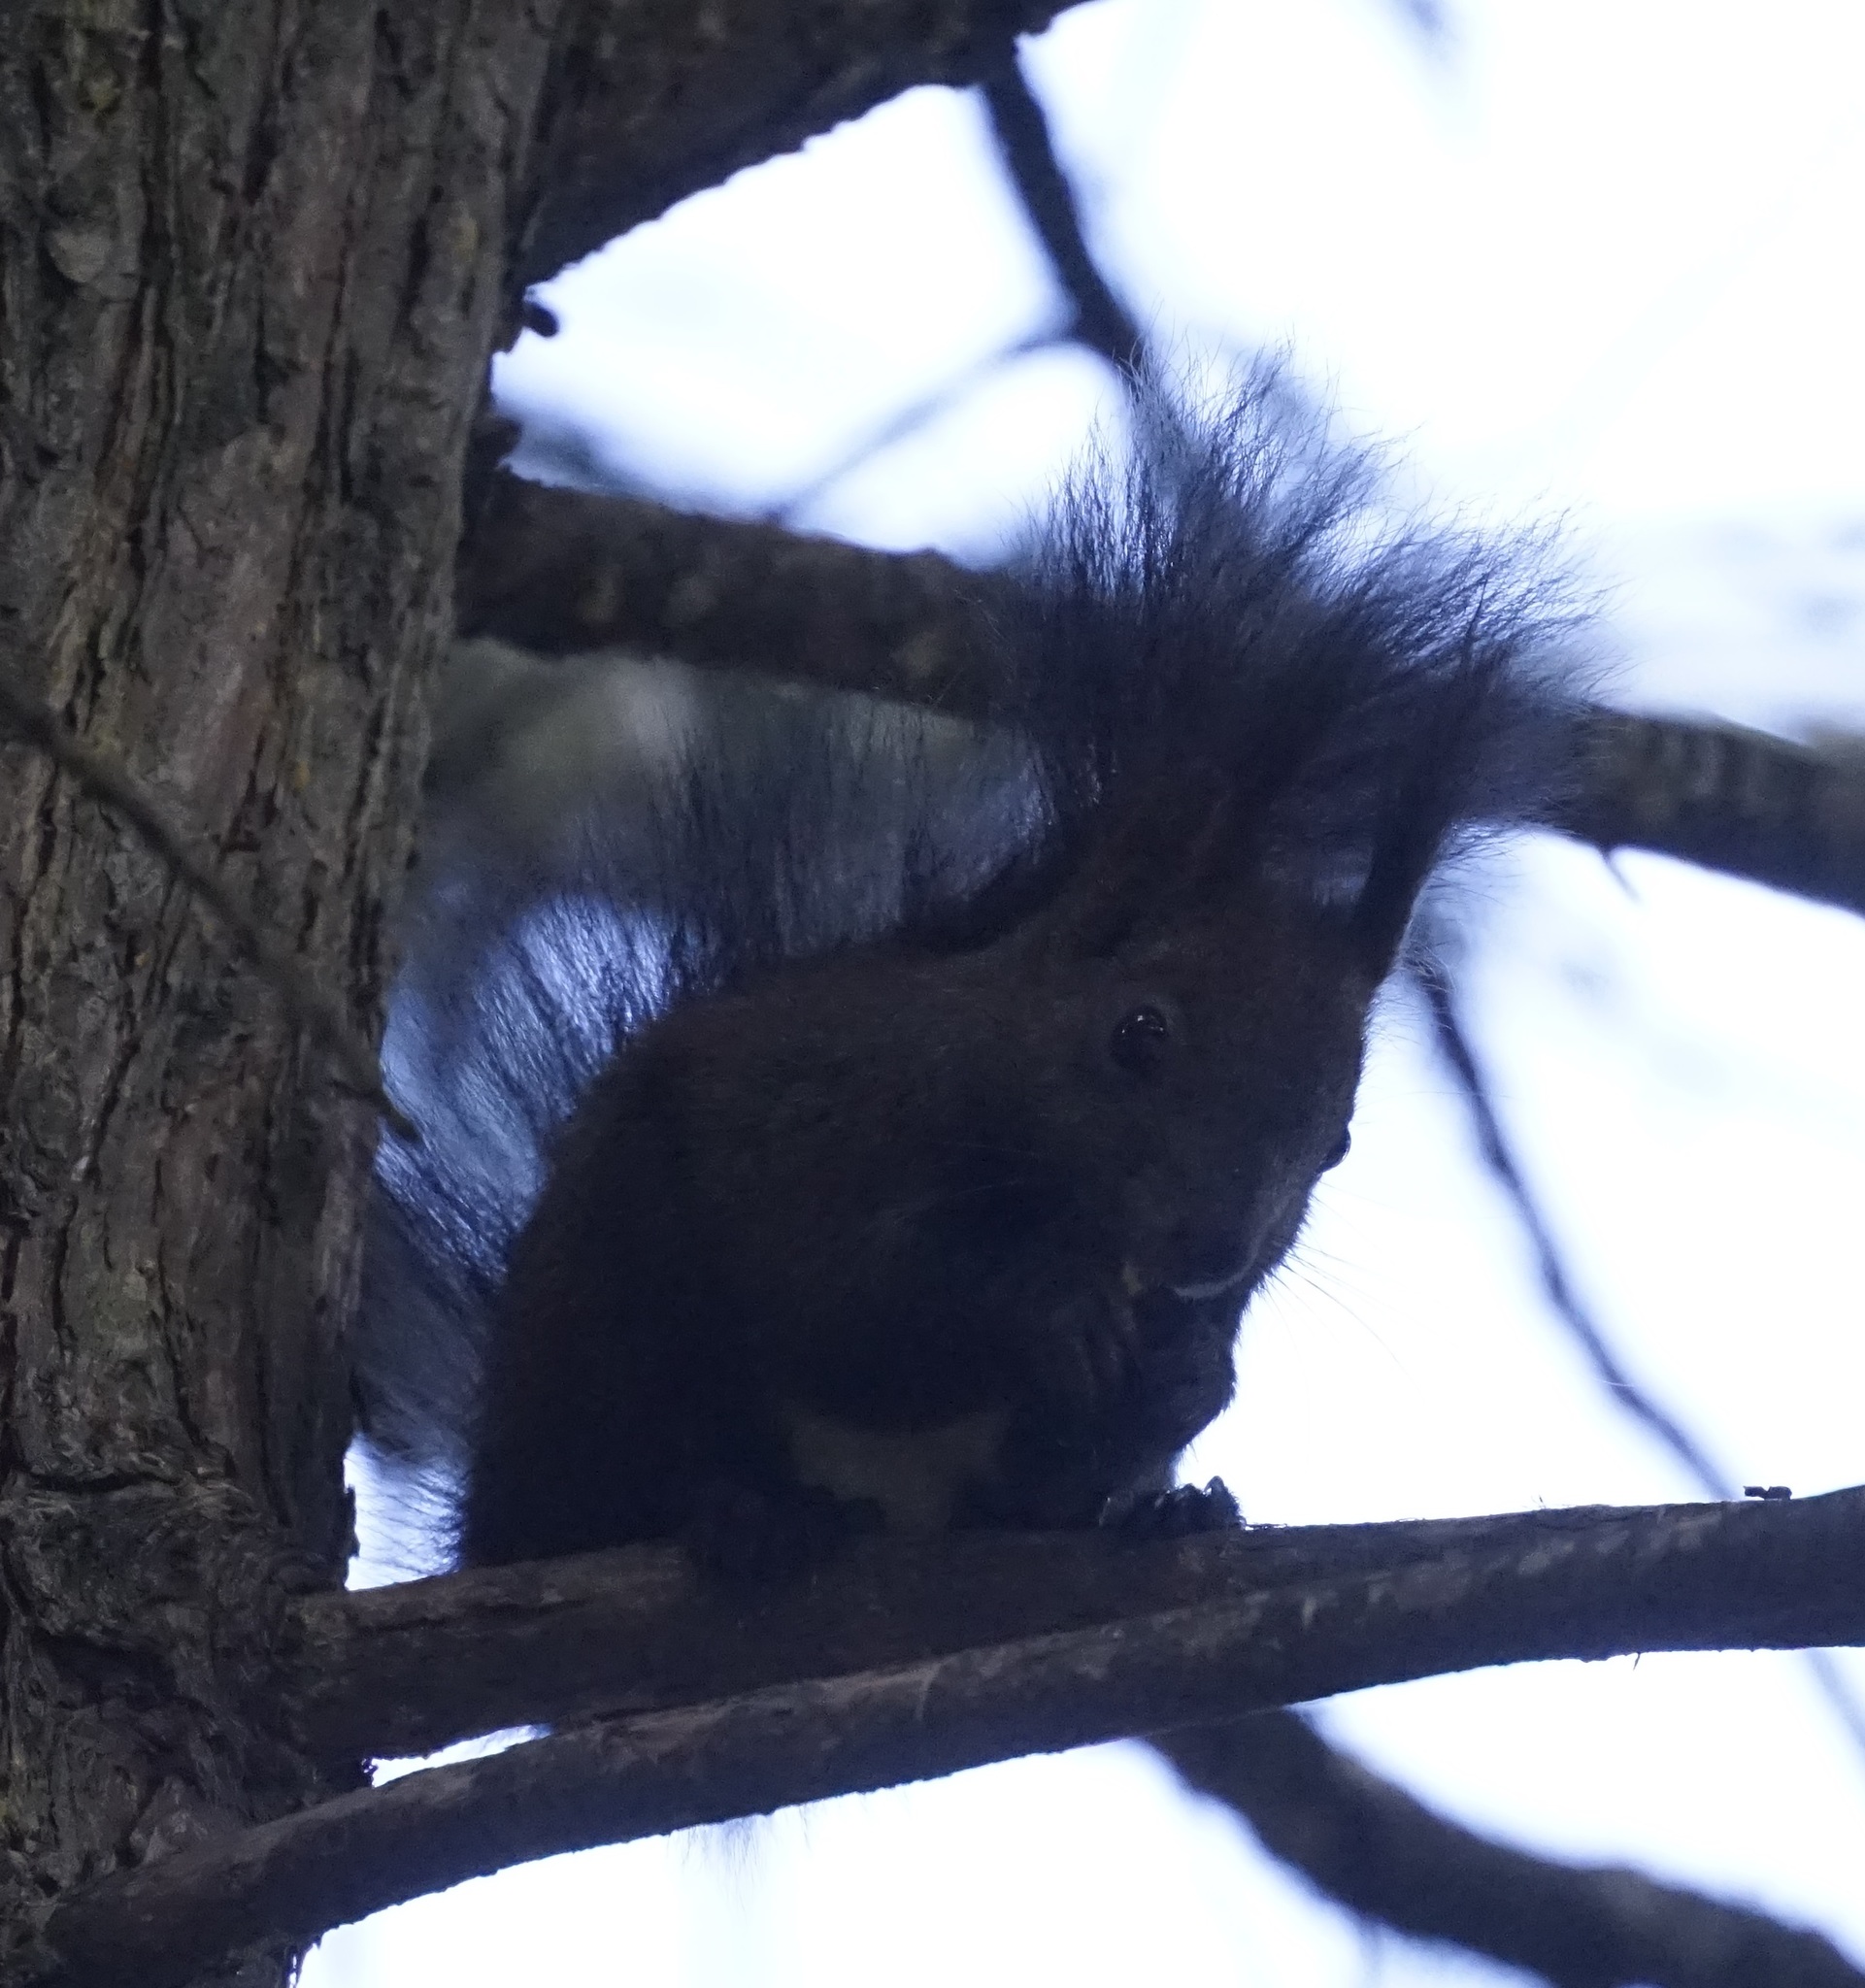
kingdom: Animalia
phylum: Chordata
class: Mammalia
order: Rodentia
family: Sciuridae
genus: Sciurus
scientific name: Sciurus vulgaris
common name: Eurasian red squirrel
